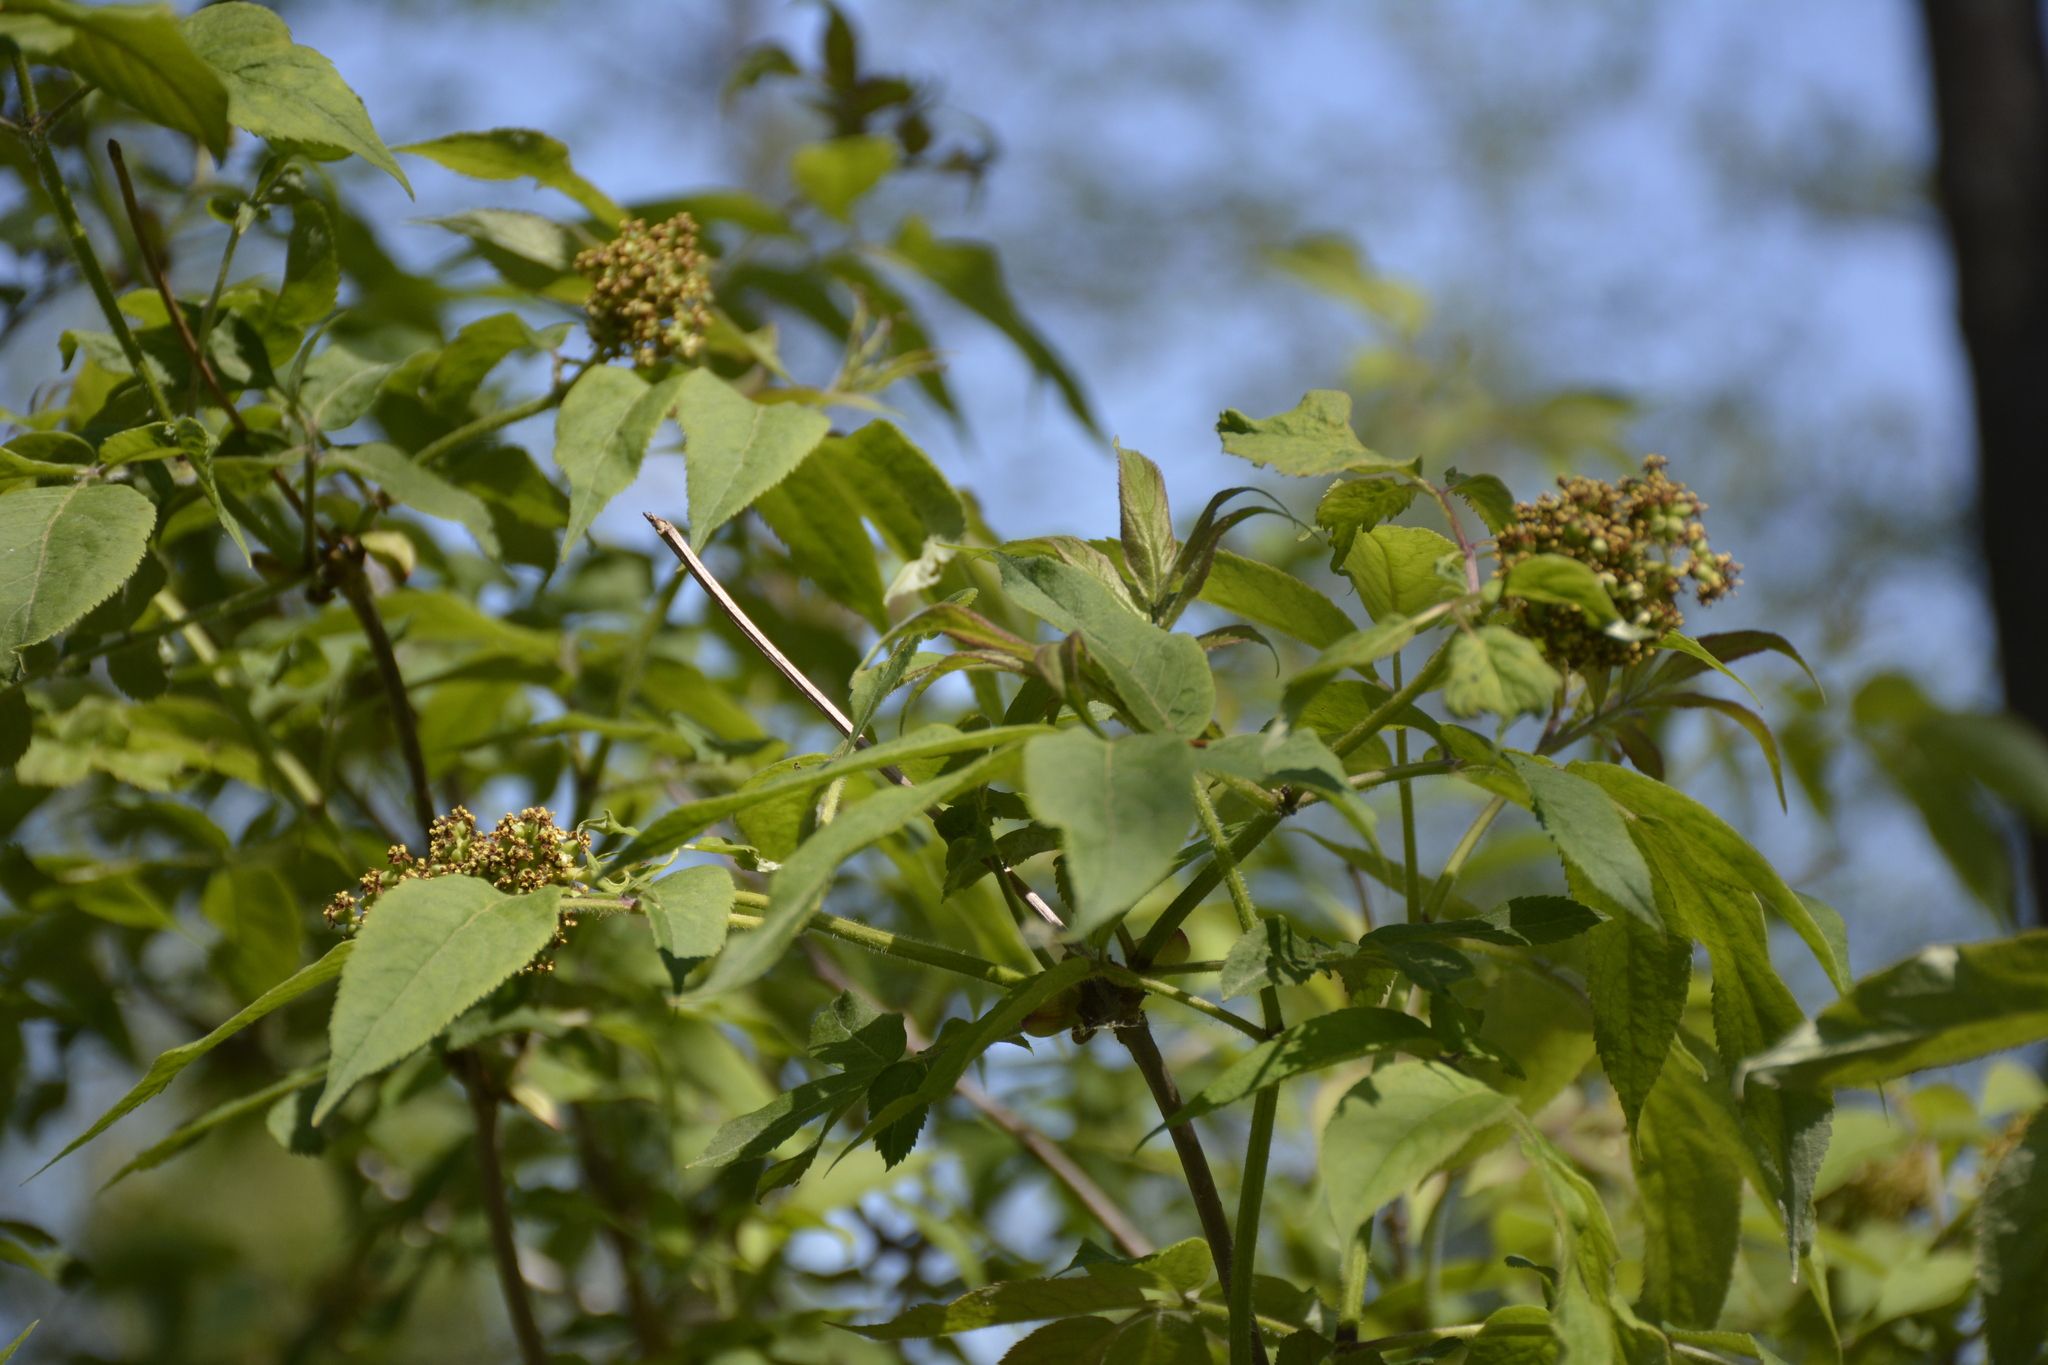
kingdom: Plantae
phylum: Tracheophyta
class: Magnoliopsida
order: Dipsacales
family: Viburnaceae
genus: Sambucus
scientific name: Sambucus racemosa
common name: Red-berried elder
